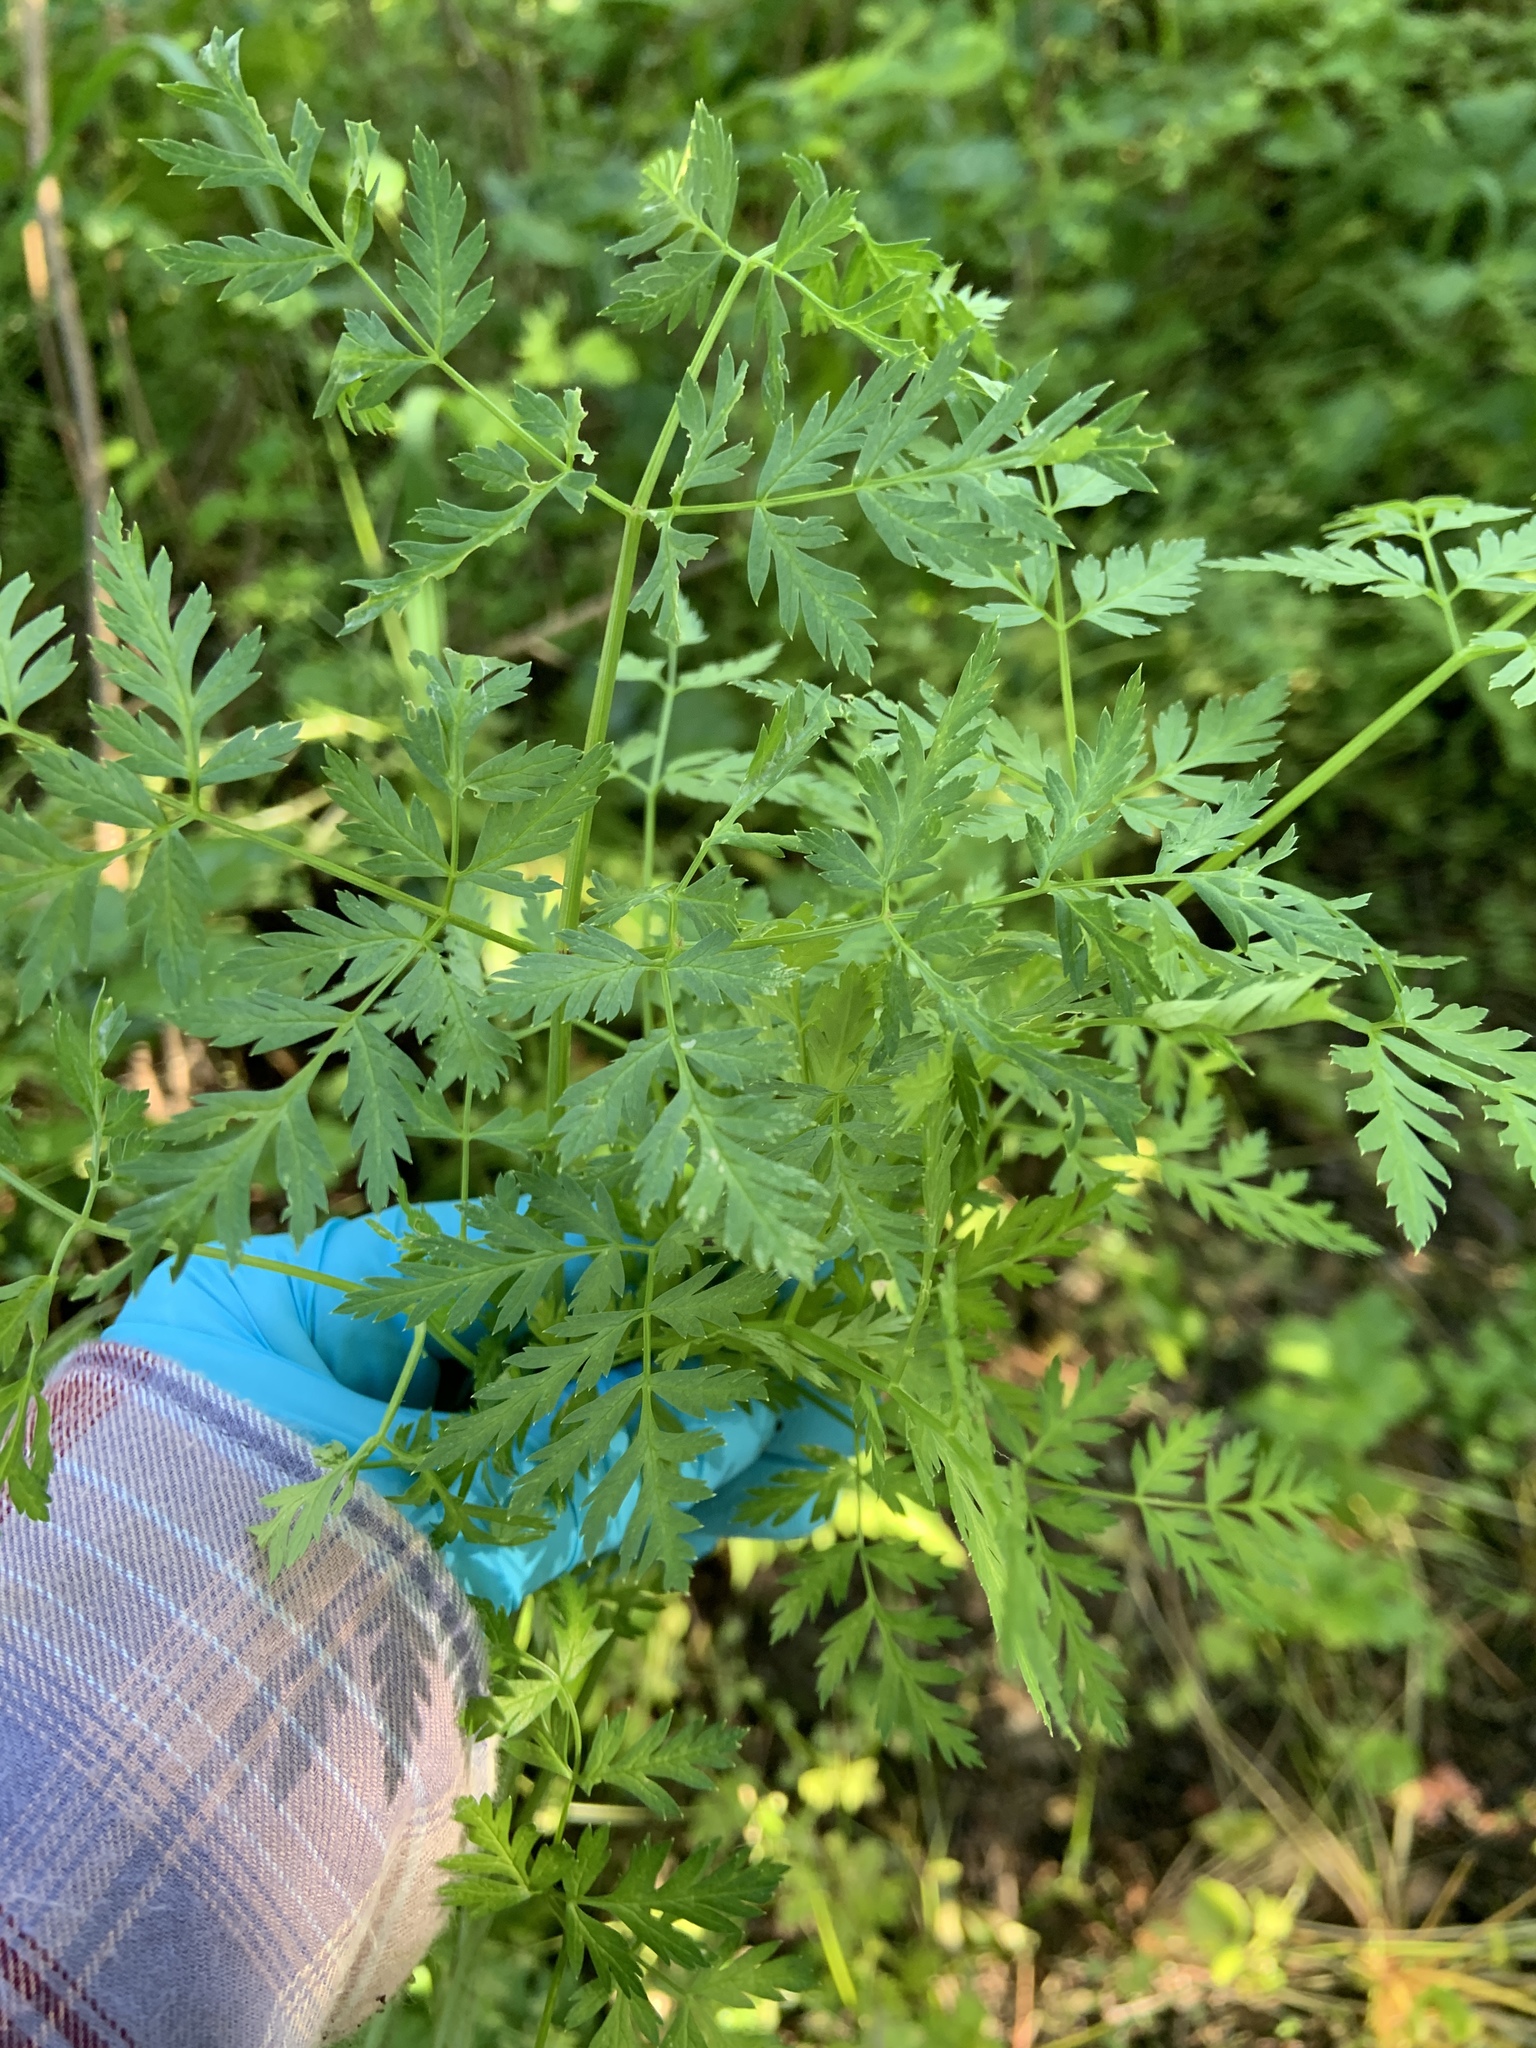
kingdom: Plantae
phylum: Tracheophyta
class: Magnoliopsida
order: Apiales
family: Apiaceae
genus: Conium
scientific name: Conium maculatum
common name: Hemlock
